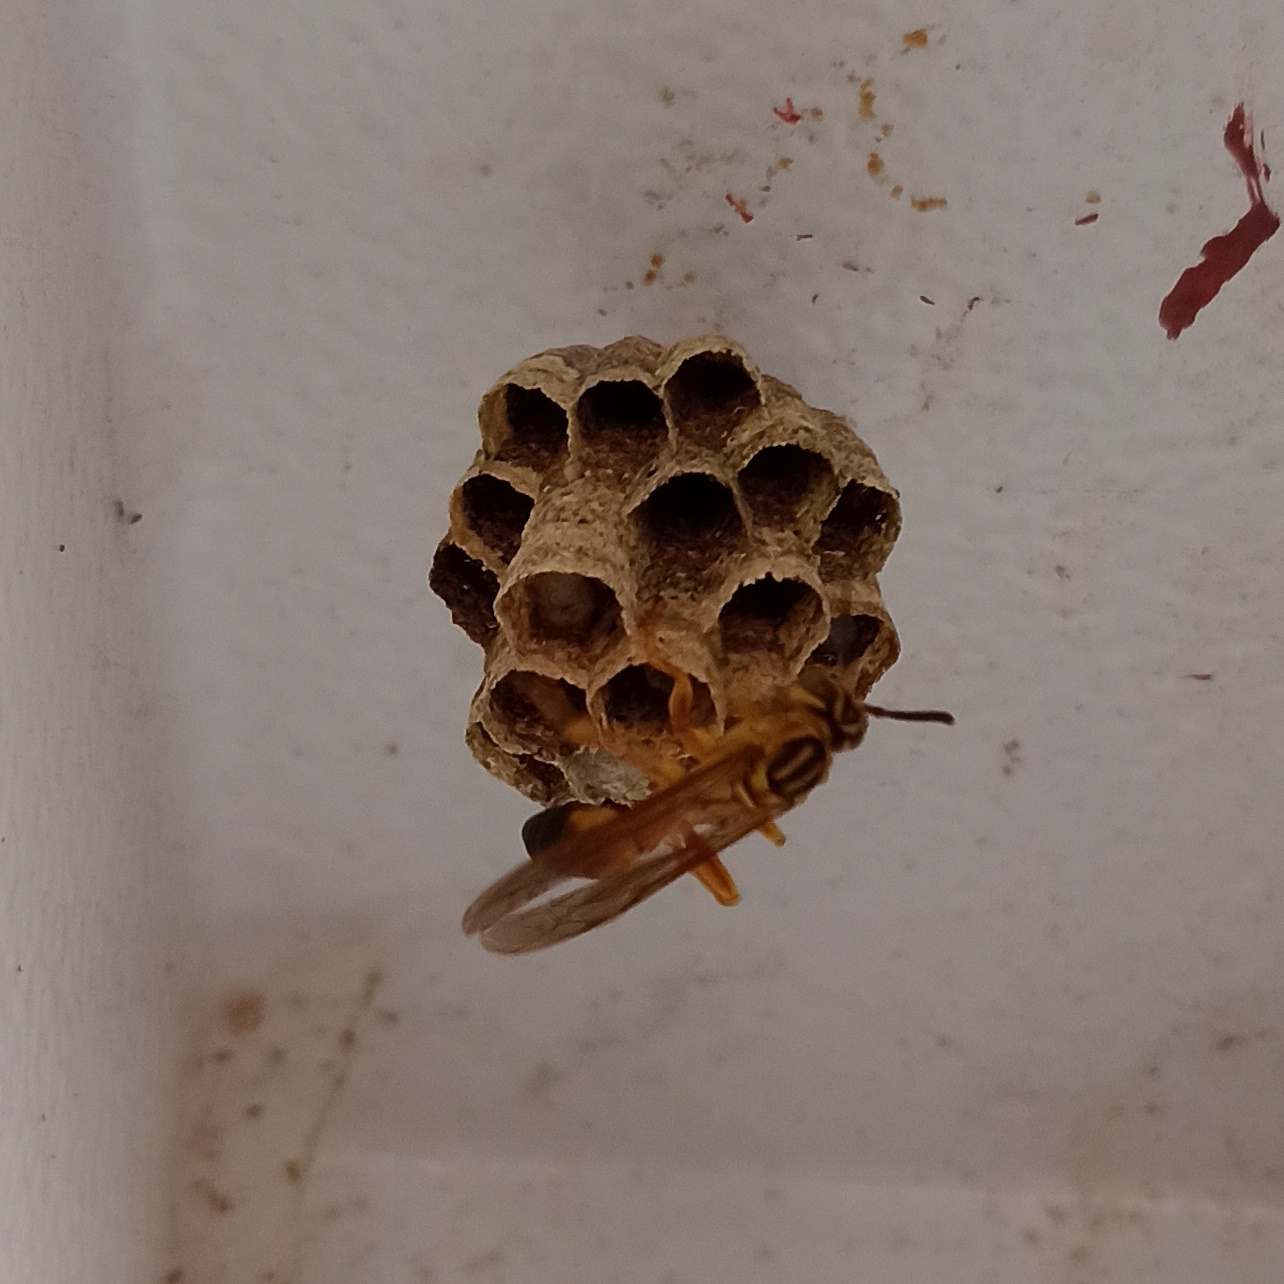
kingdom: Animalia
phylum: Arthropoda
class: Insecta
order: Hymenoptera
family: Vespidae
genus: Mischocyttarus
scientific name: Mischocyttarus cerberus
